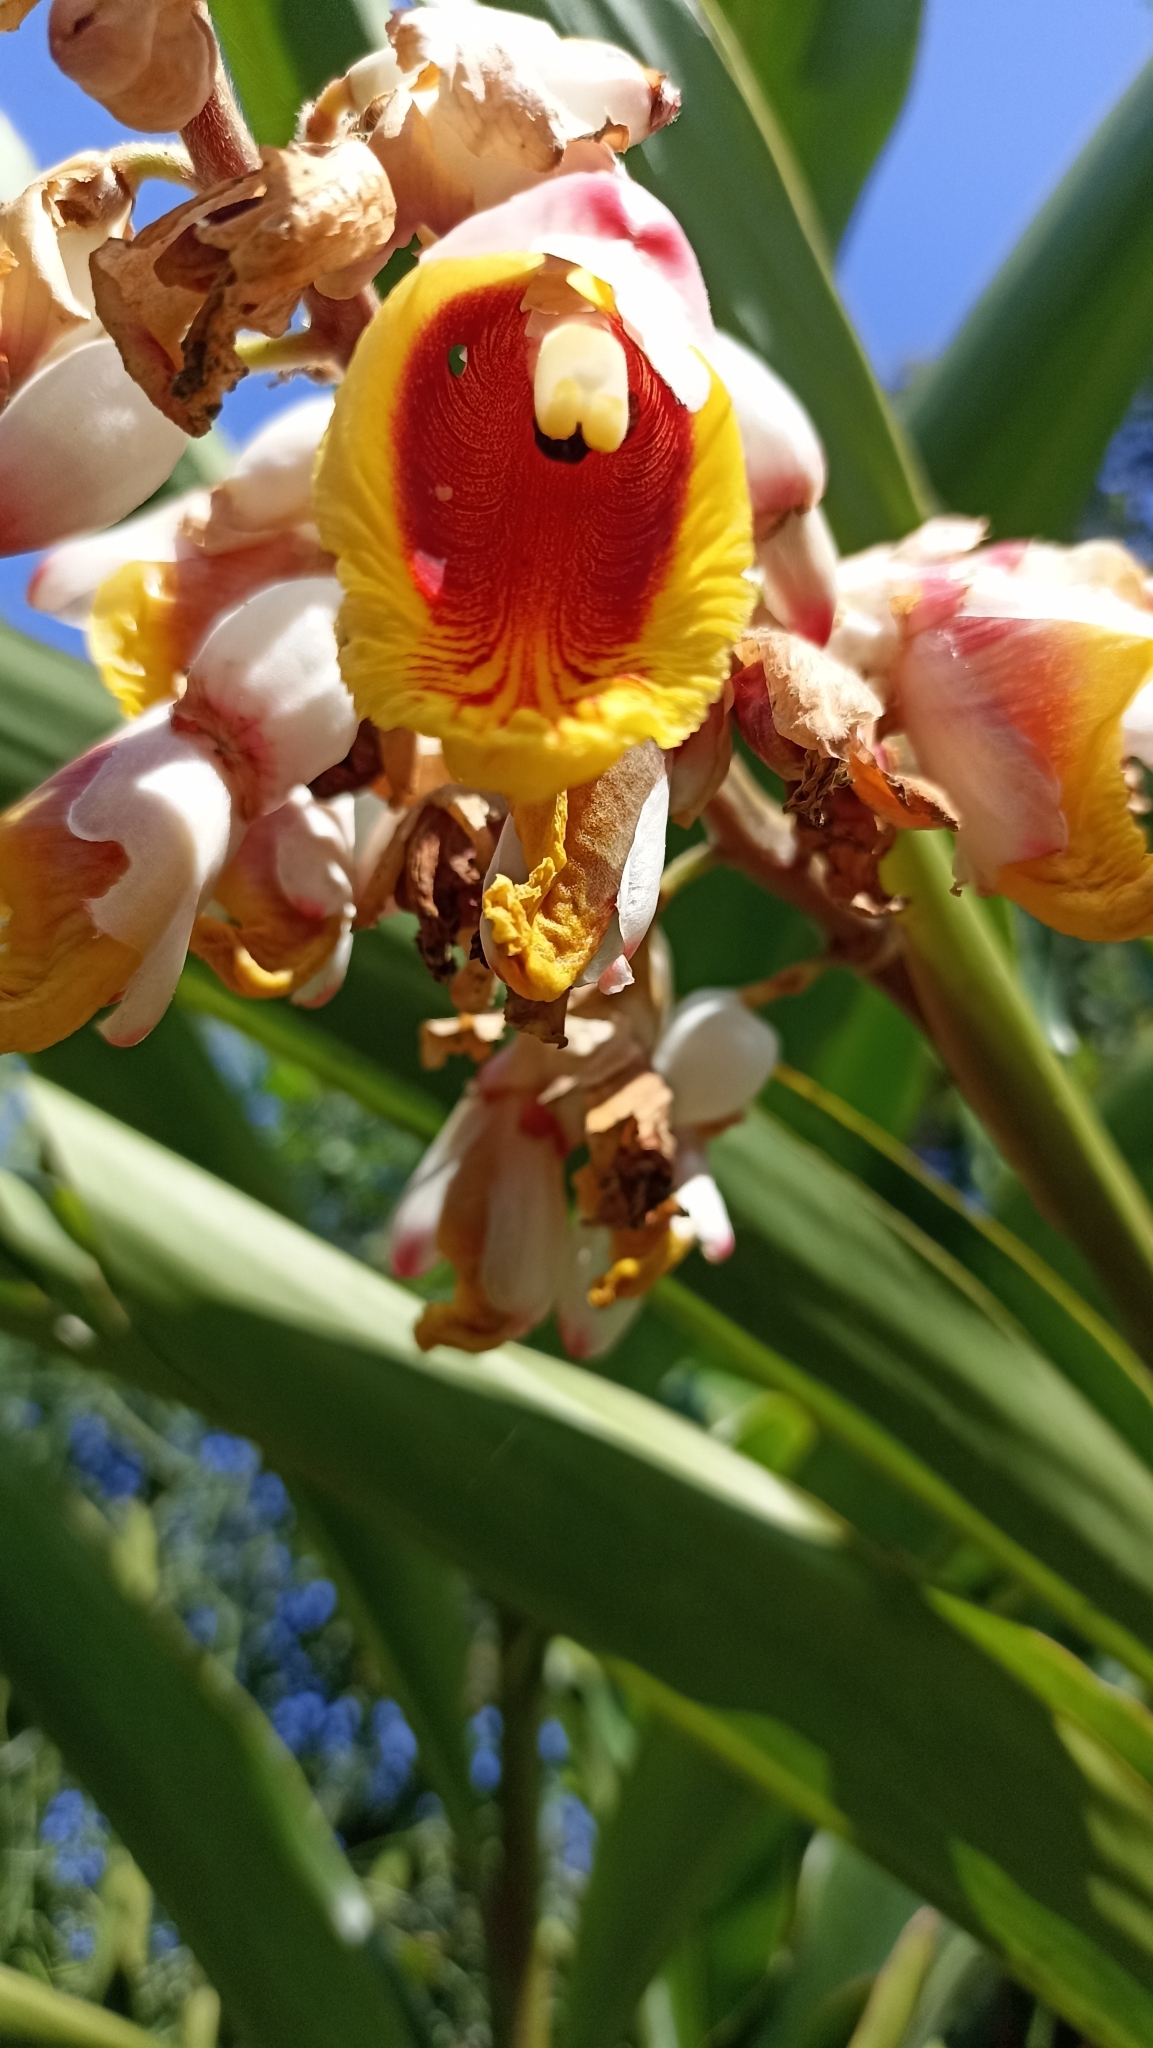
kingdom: Plantae
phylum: Tracheophyta
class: Liliopsida
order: Zingiberales
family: Zingiberaceae
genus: Alpinia
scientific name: Alpinia zerumbet
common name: Shellplant
